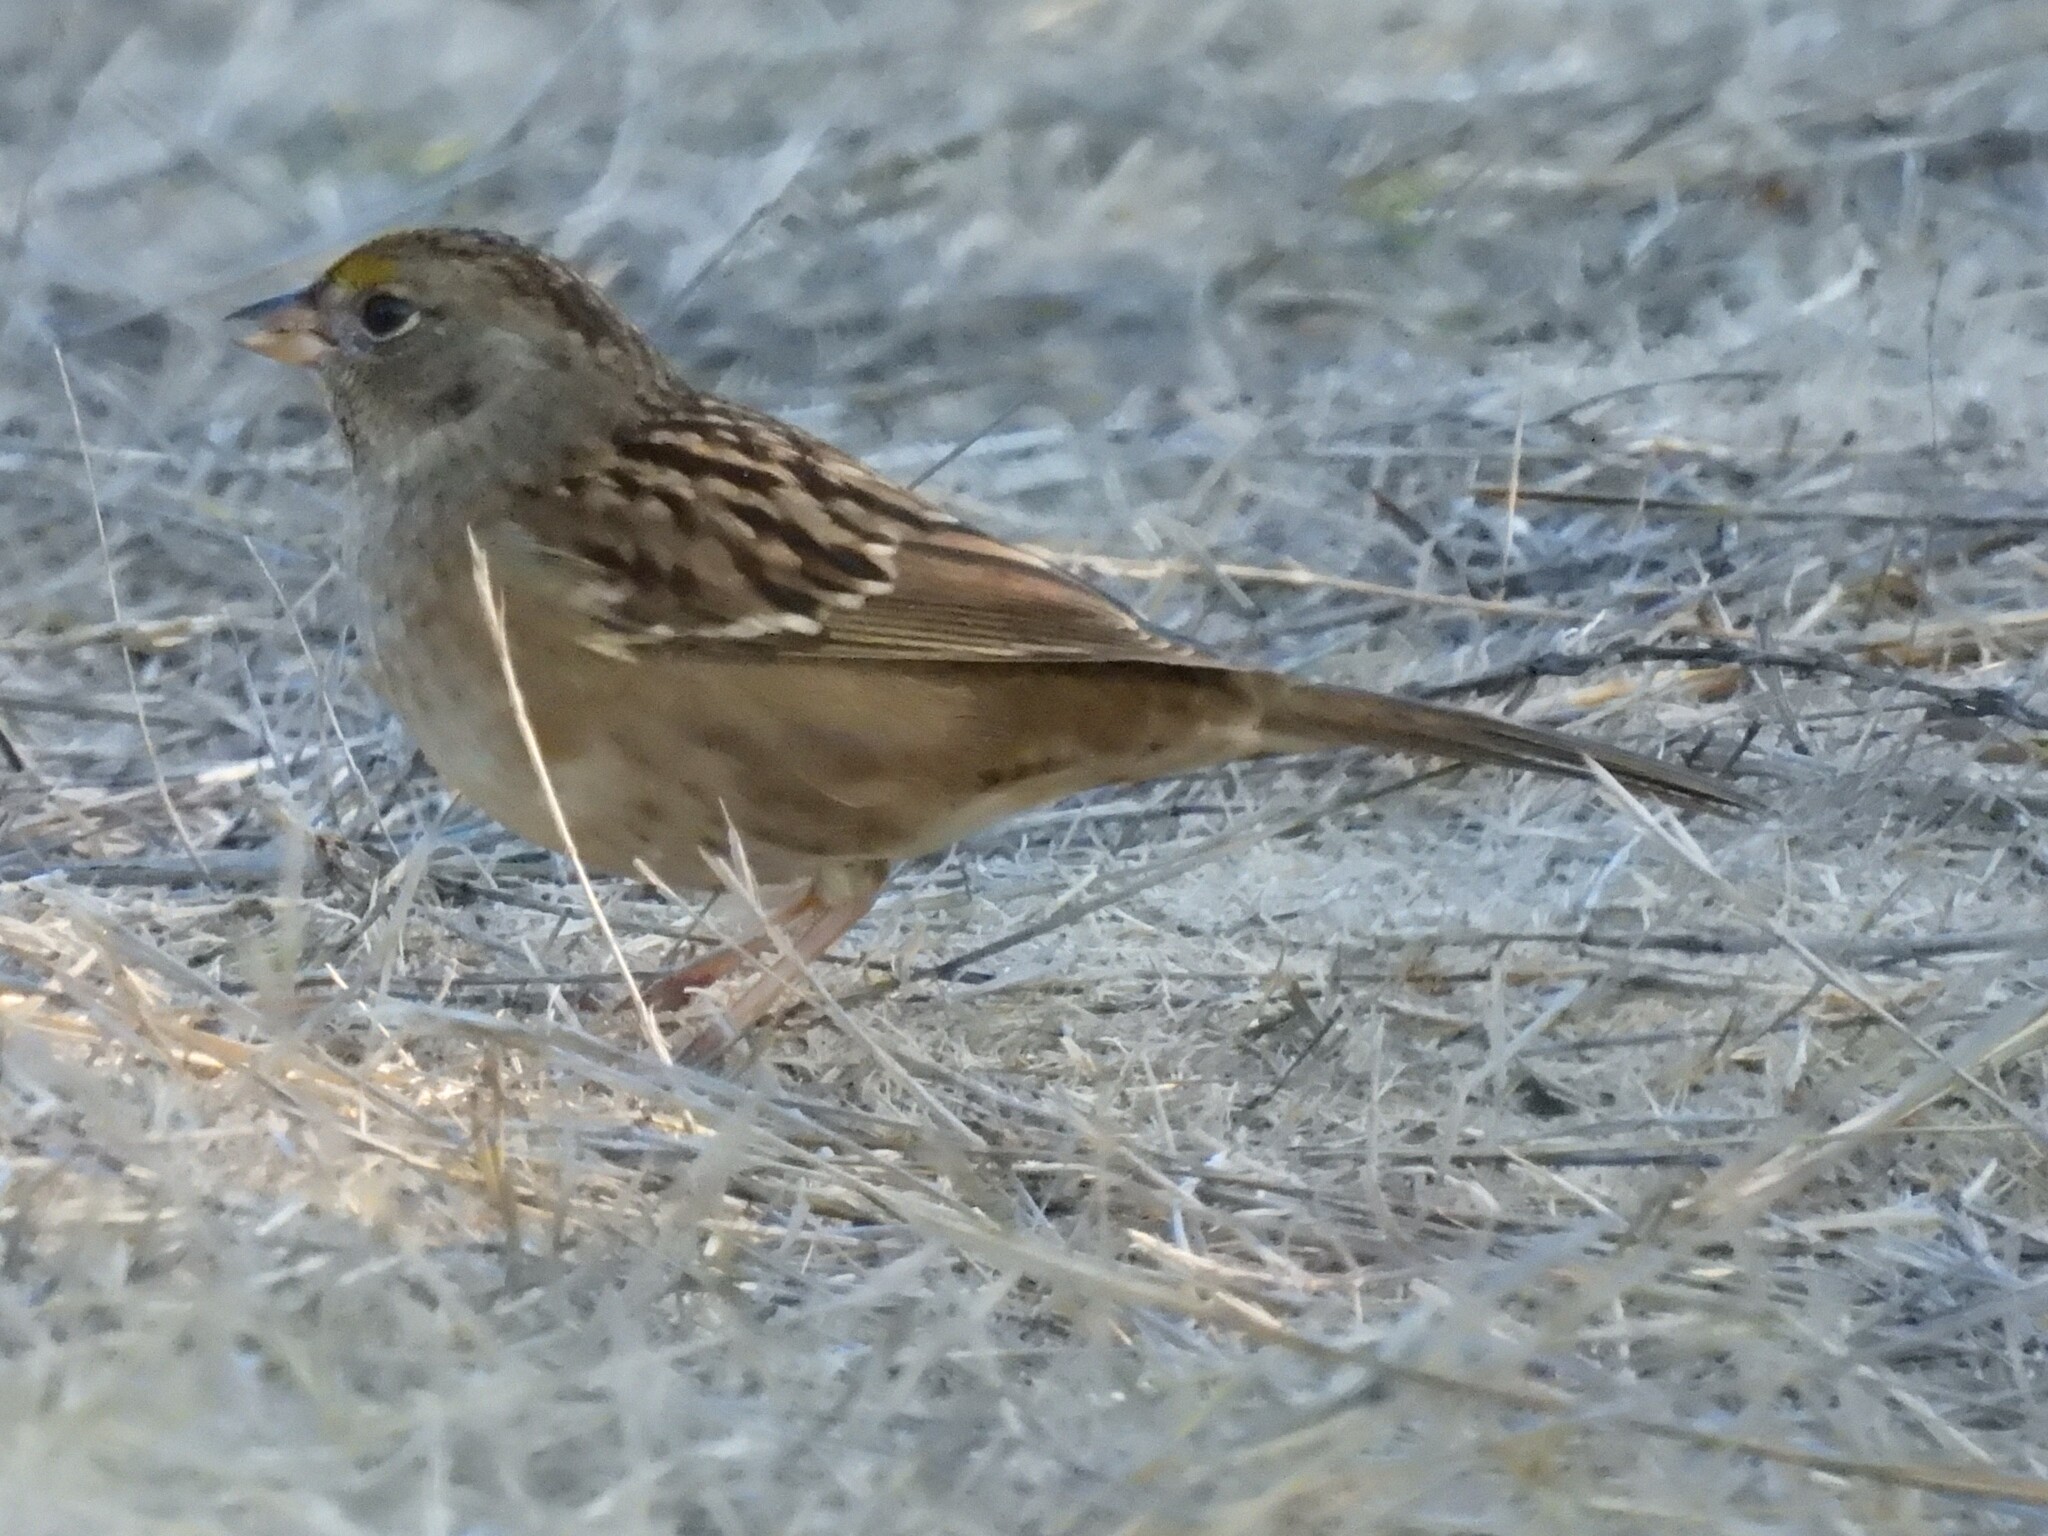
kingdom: Animalia
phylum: Chordata
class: Aves
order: Passeriformes
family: Passerellidae
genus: Zonotrichia
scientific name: Zonotrichia atricapilla
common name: Golden-crowned sparrow
